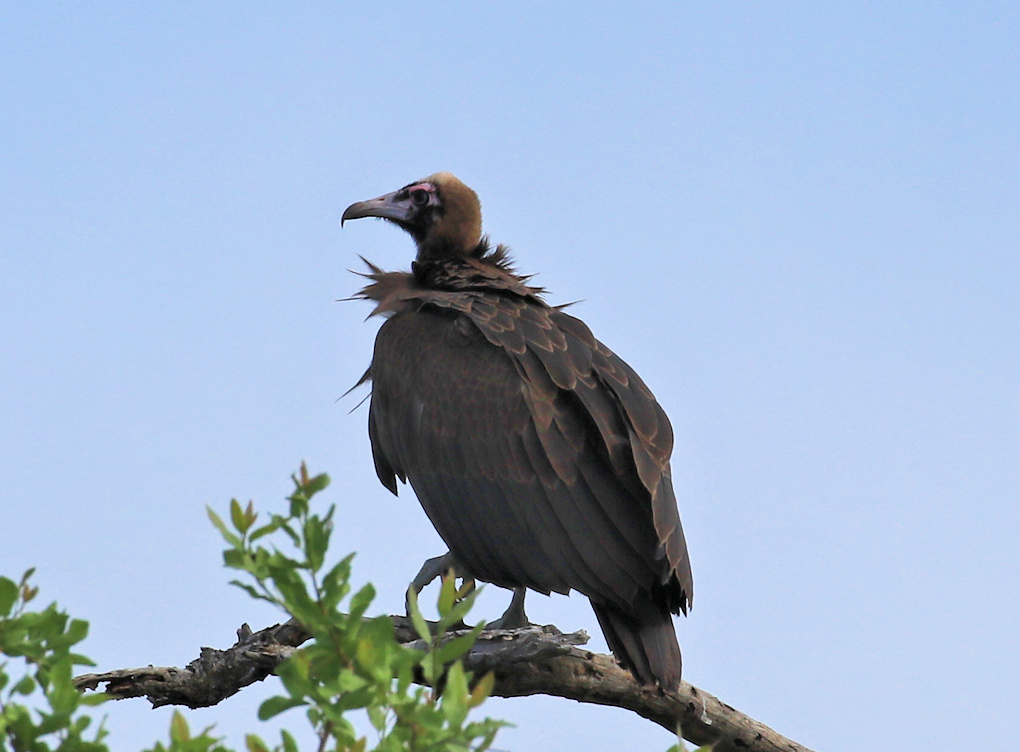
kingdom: Animalia
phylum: Chordata
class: Aves
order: Accipitriformes
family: Accipitridae
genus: Necrosyrtes
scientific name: Necrosyrtes monachus
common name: Hooded vulture
